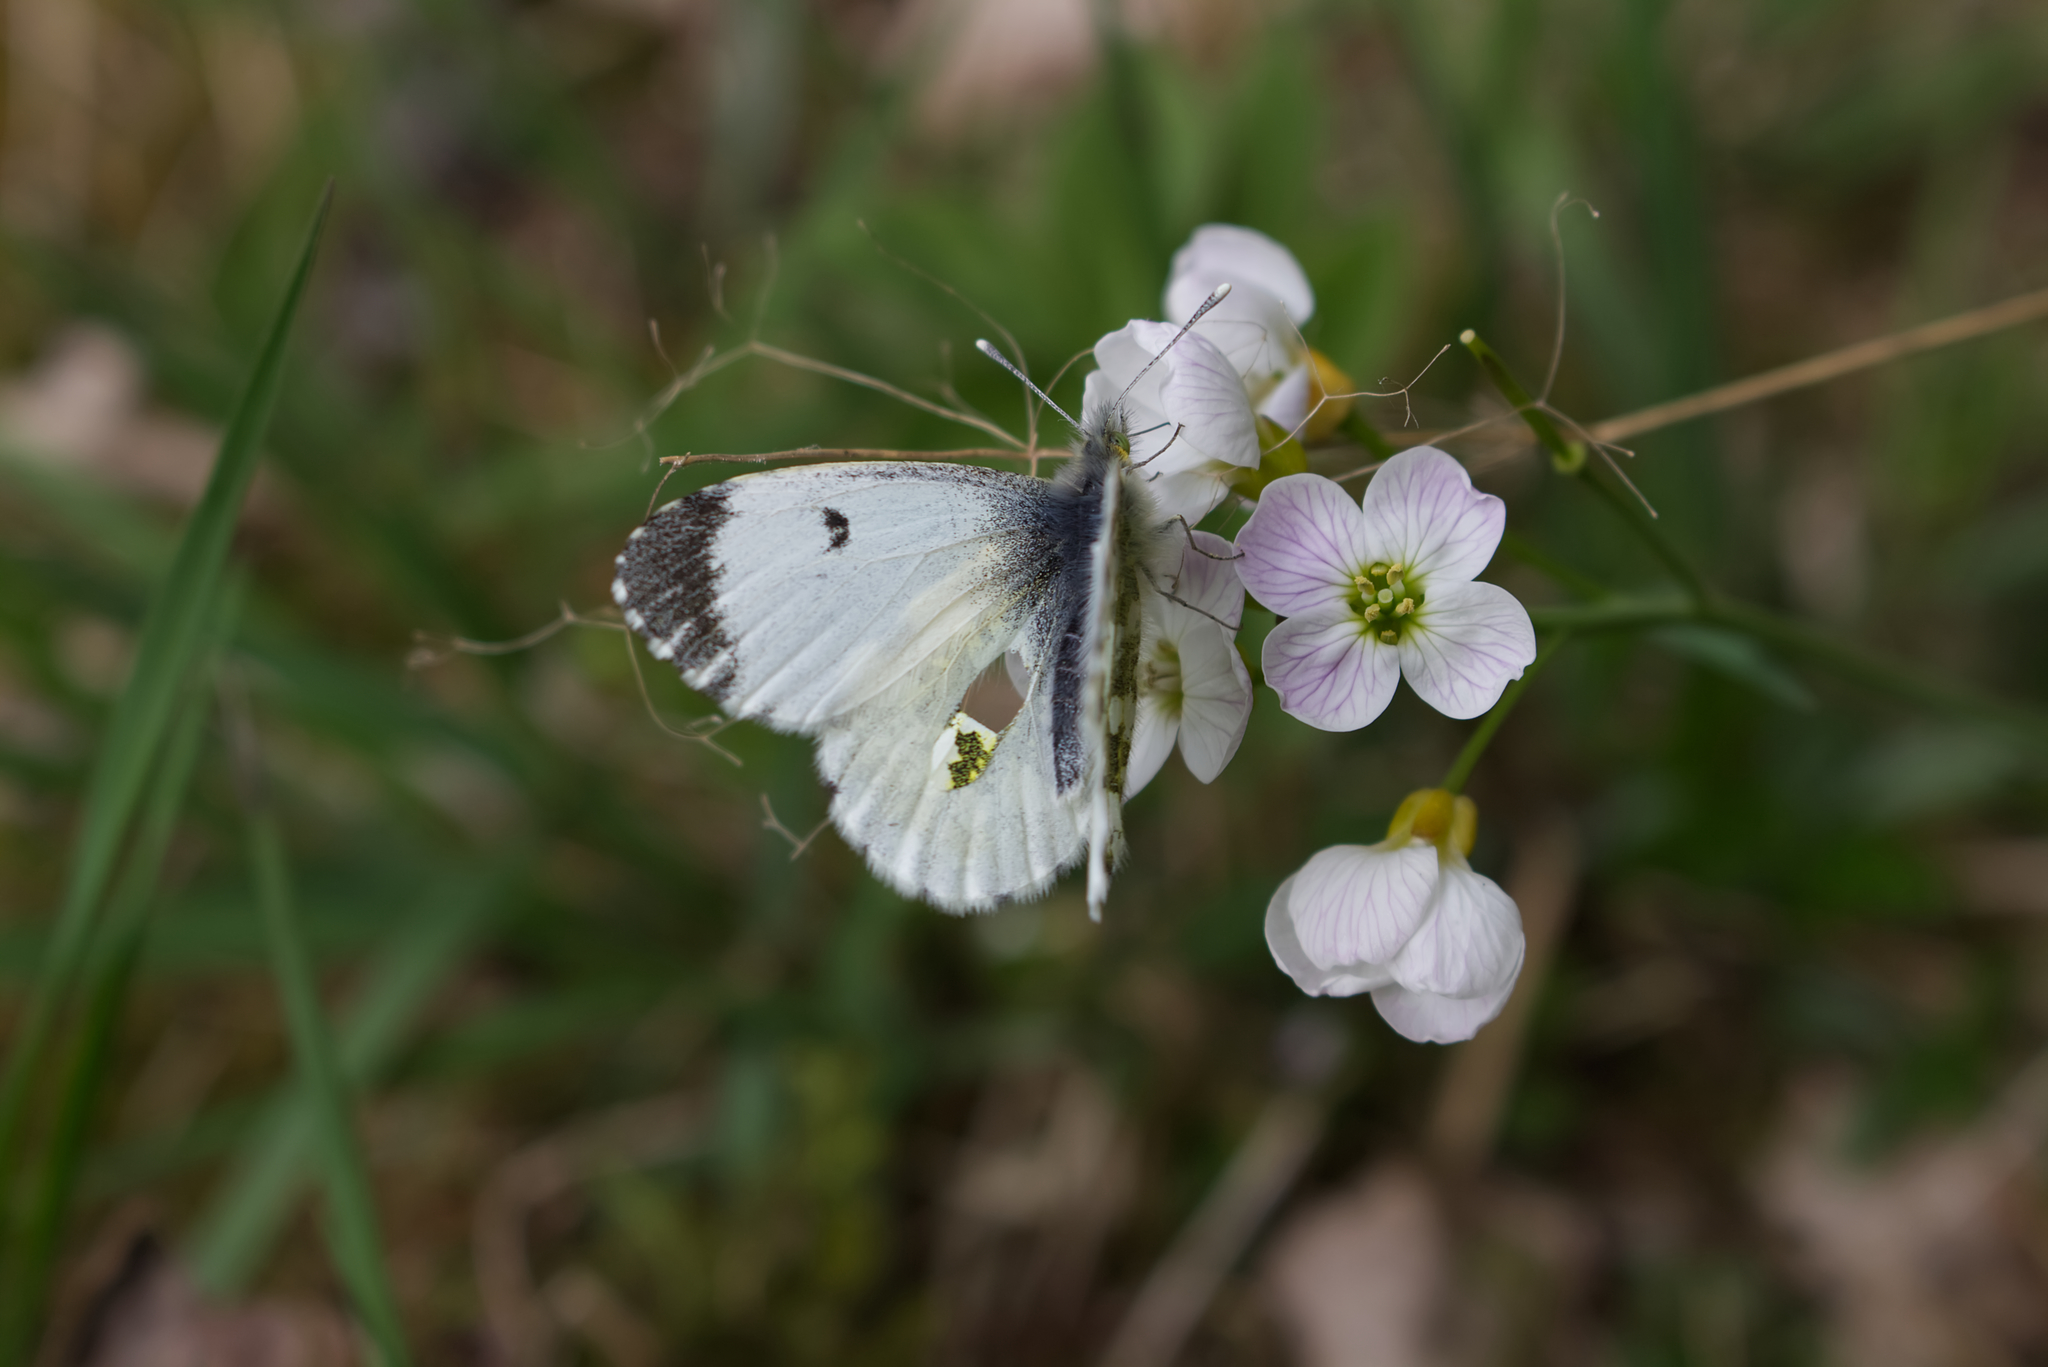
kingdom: Animalia
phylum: Arthropoda
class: Insecta
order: Lepidoptera
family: Pieridae
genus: Anthocharis
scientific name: Anthocharis cardamines
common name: Orange-tip
